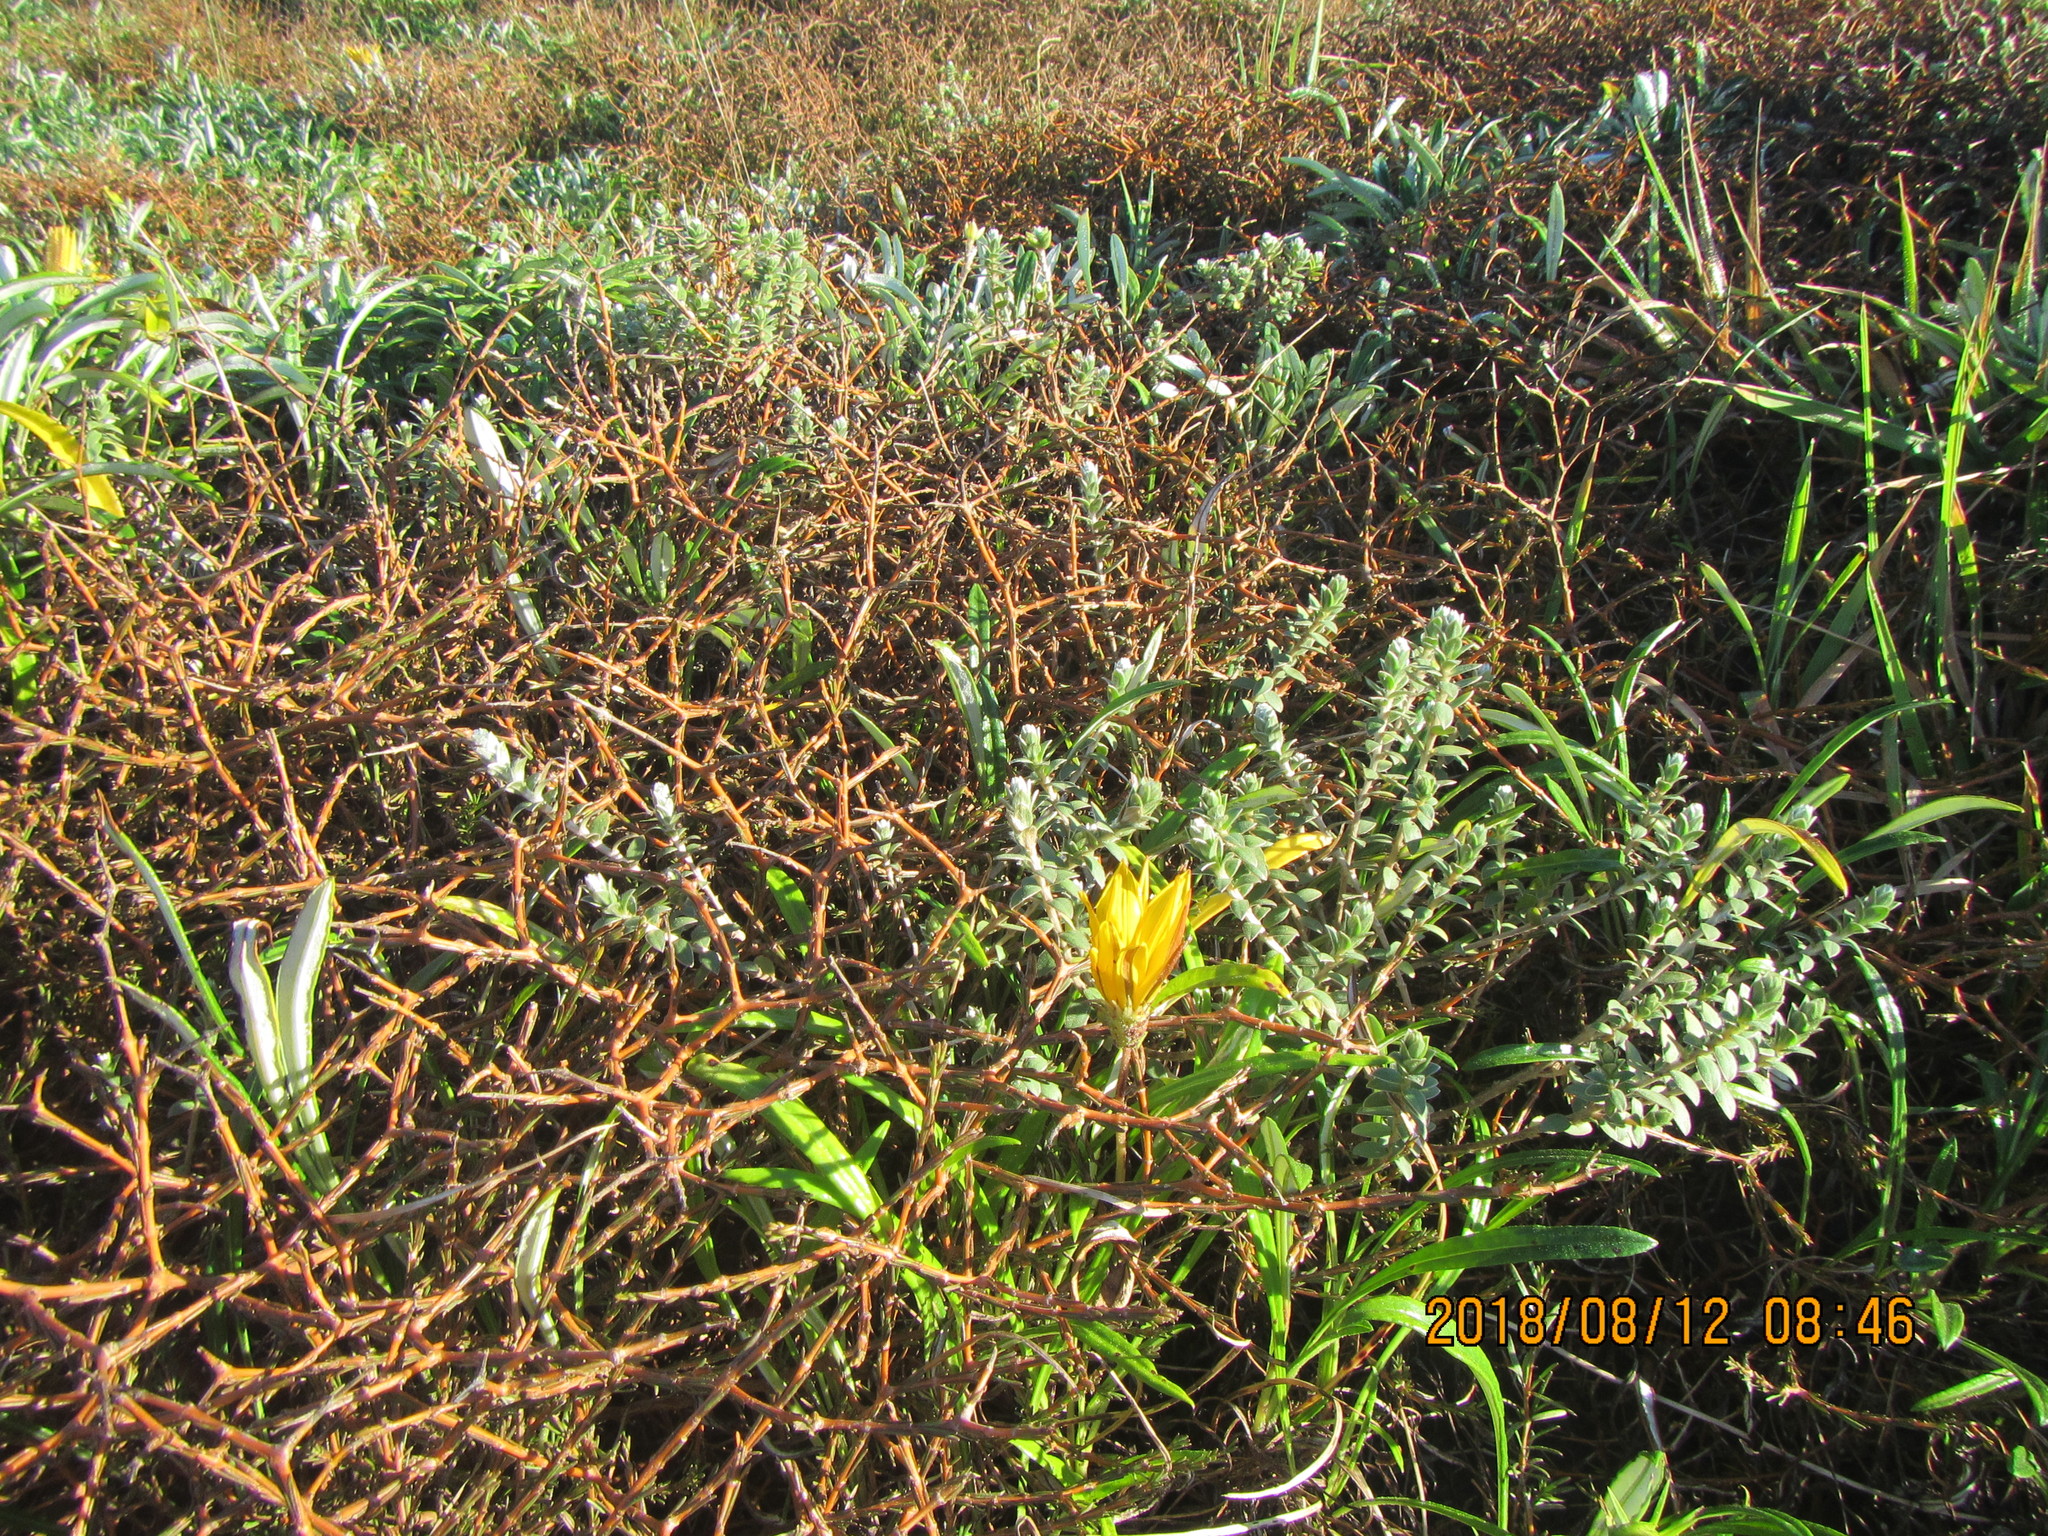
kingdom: Plantae
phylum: Tracheophyta
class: Magnoliopsida
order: Gentianales
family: Rubiaceae
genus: Coprosma
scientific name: Coprosma acerosa
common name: Sand coprosma
